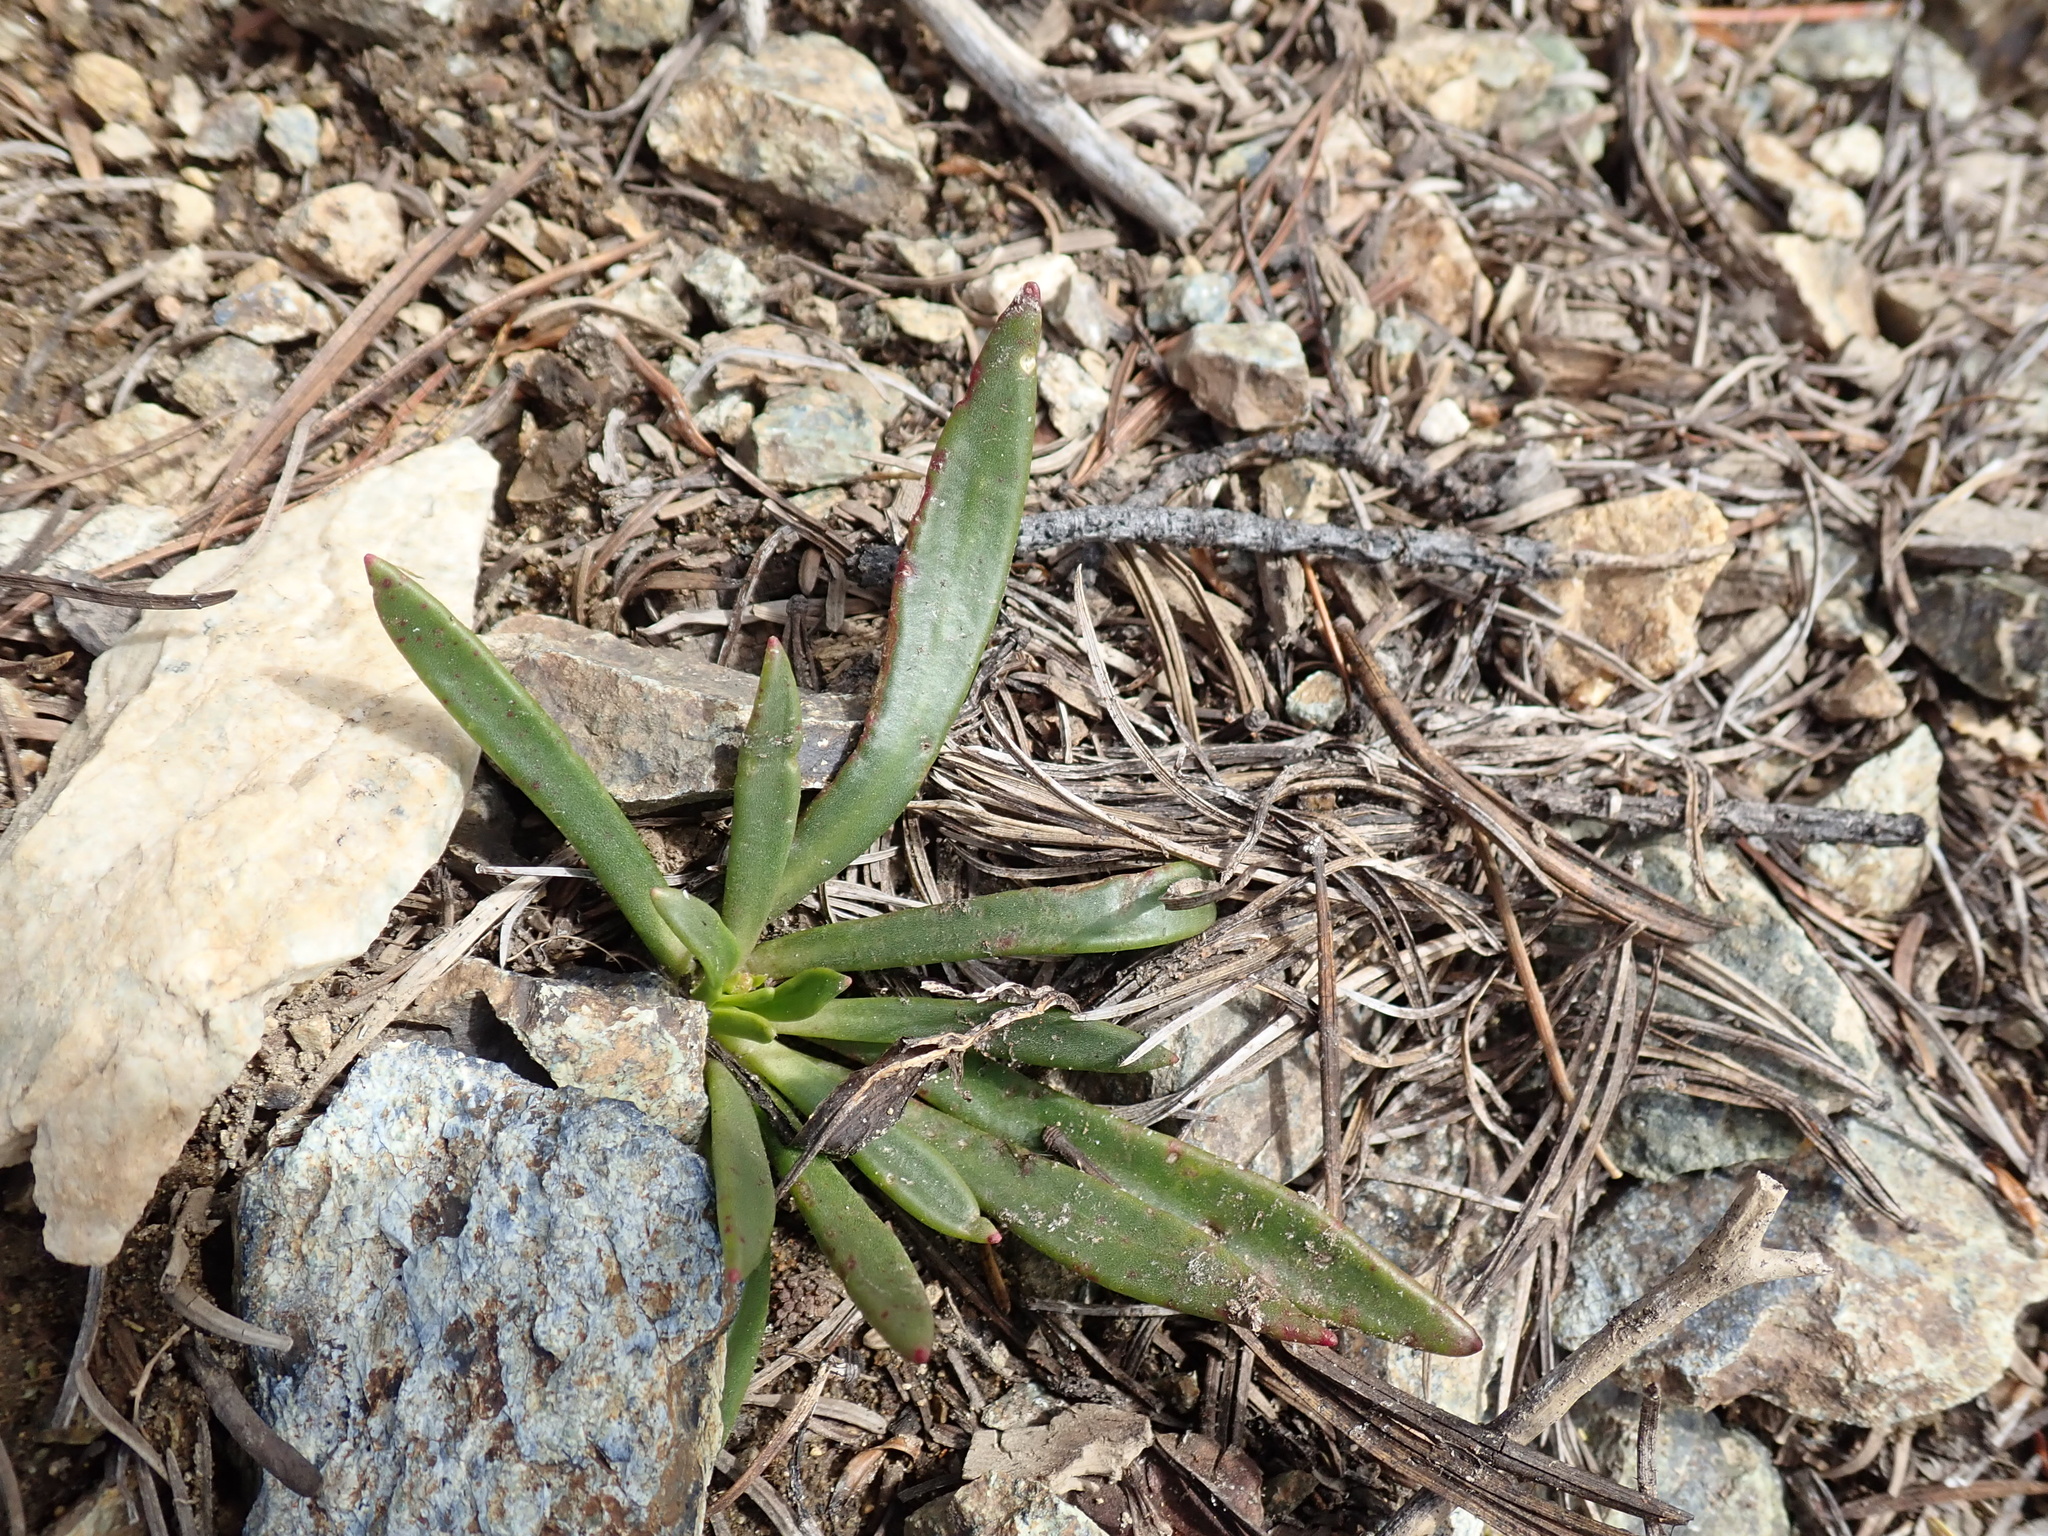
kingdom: Plantae
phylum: Tracheophyta
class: Magnoliopsida
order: Caryophyllales
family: Montiaceae
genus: Lewisia
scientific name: Lewisia columbiana
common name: Columbia lewisia
